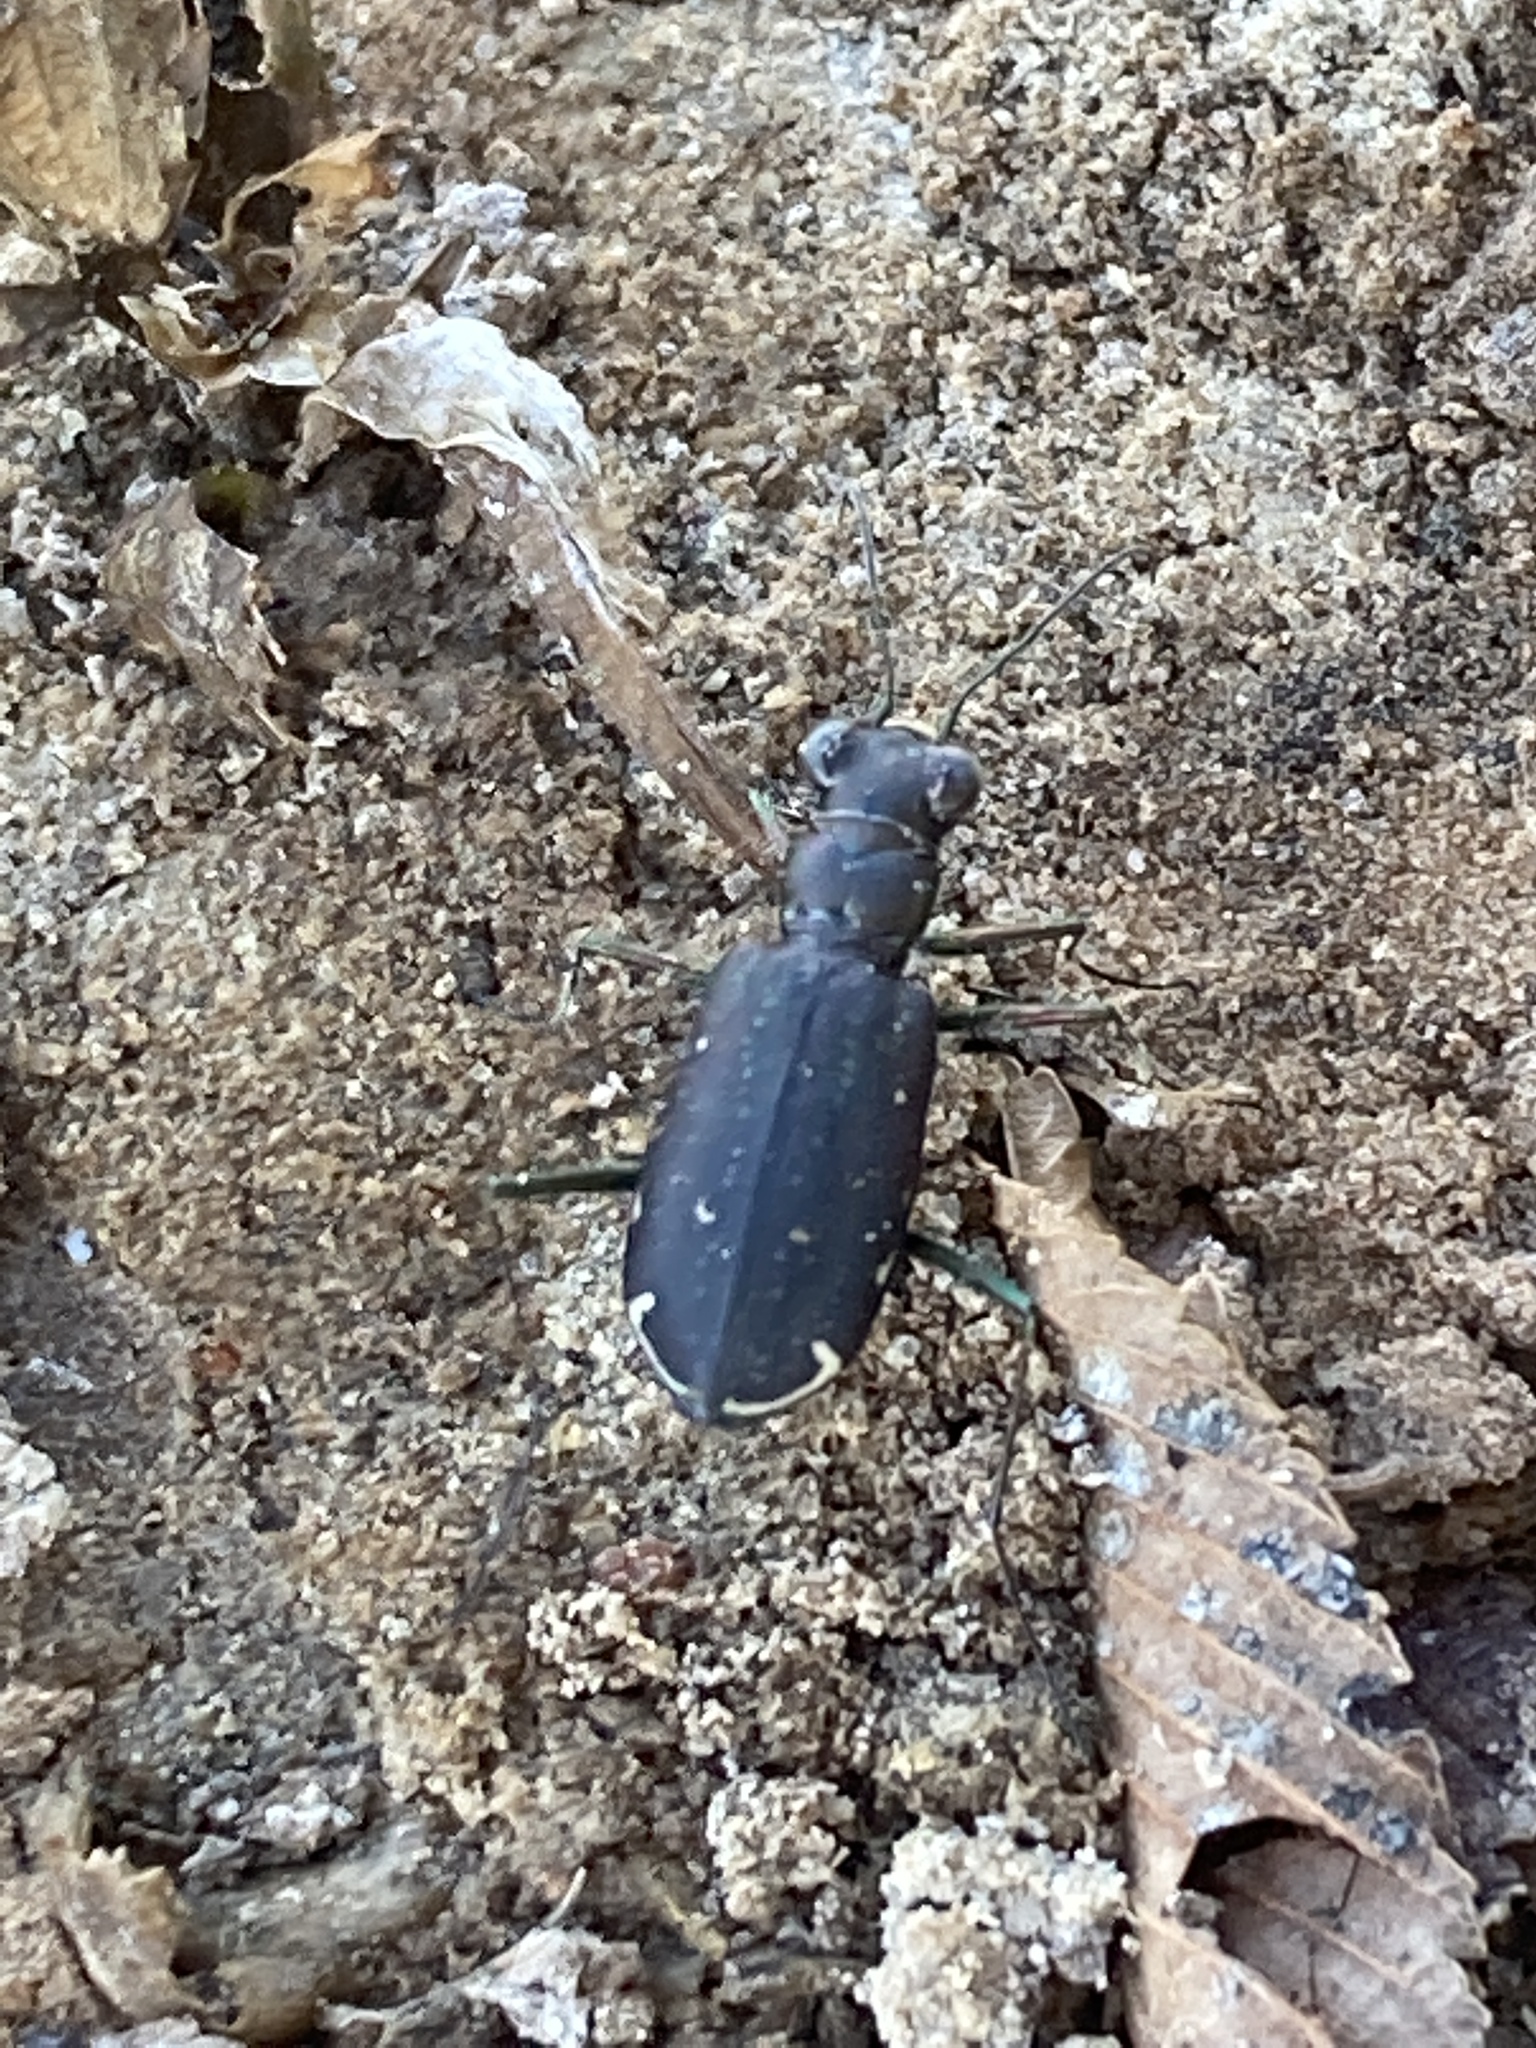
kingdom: Animalia
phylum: Arthropoda
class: Insecta
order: Coleoptera
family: Carabidae
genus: Cicindela
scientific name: Cicindela punctulata
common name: Punctured tiger beetle
